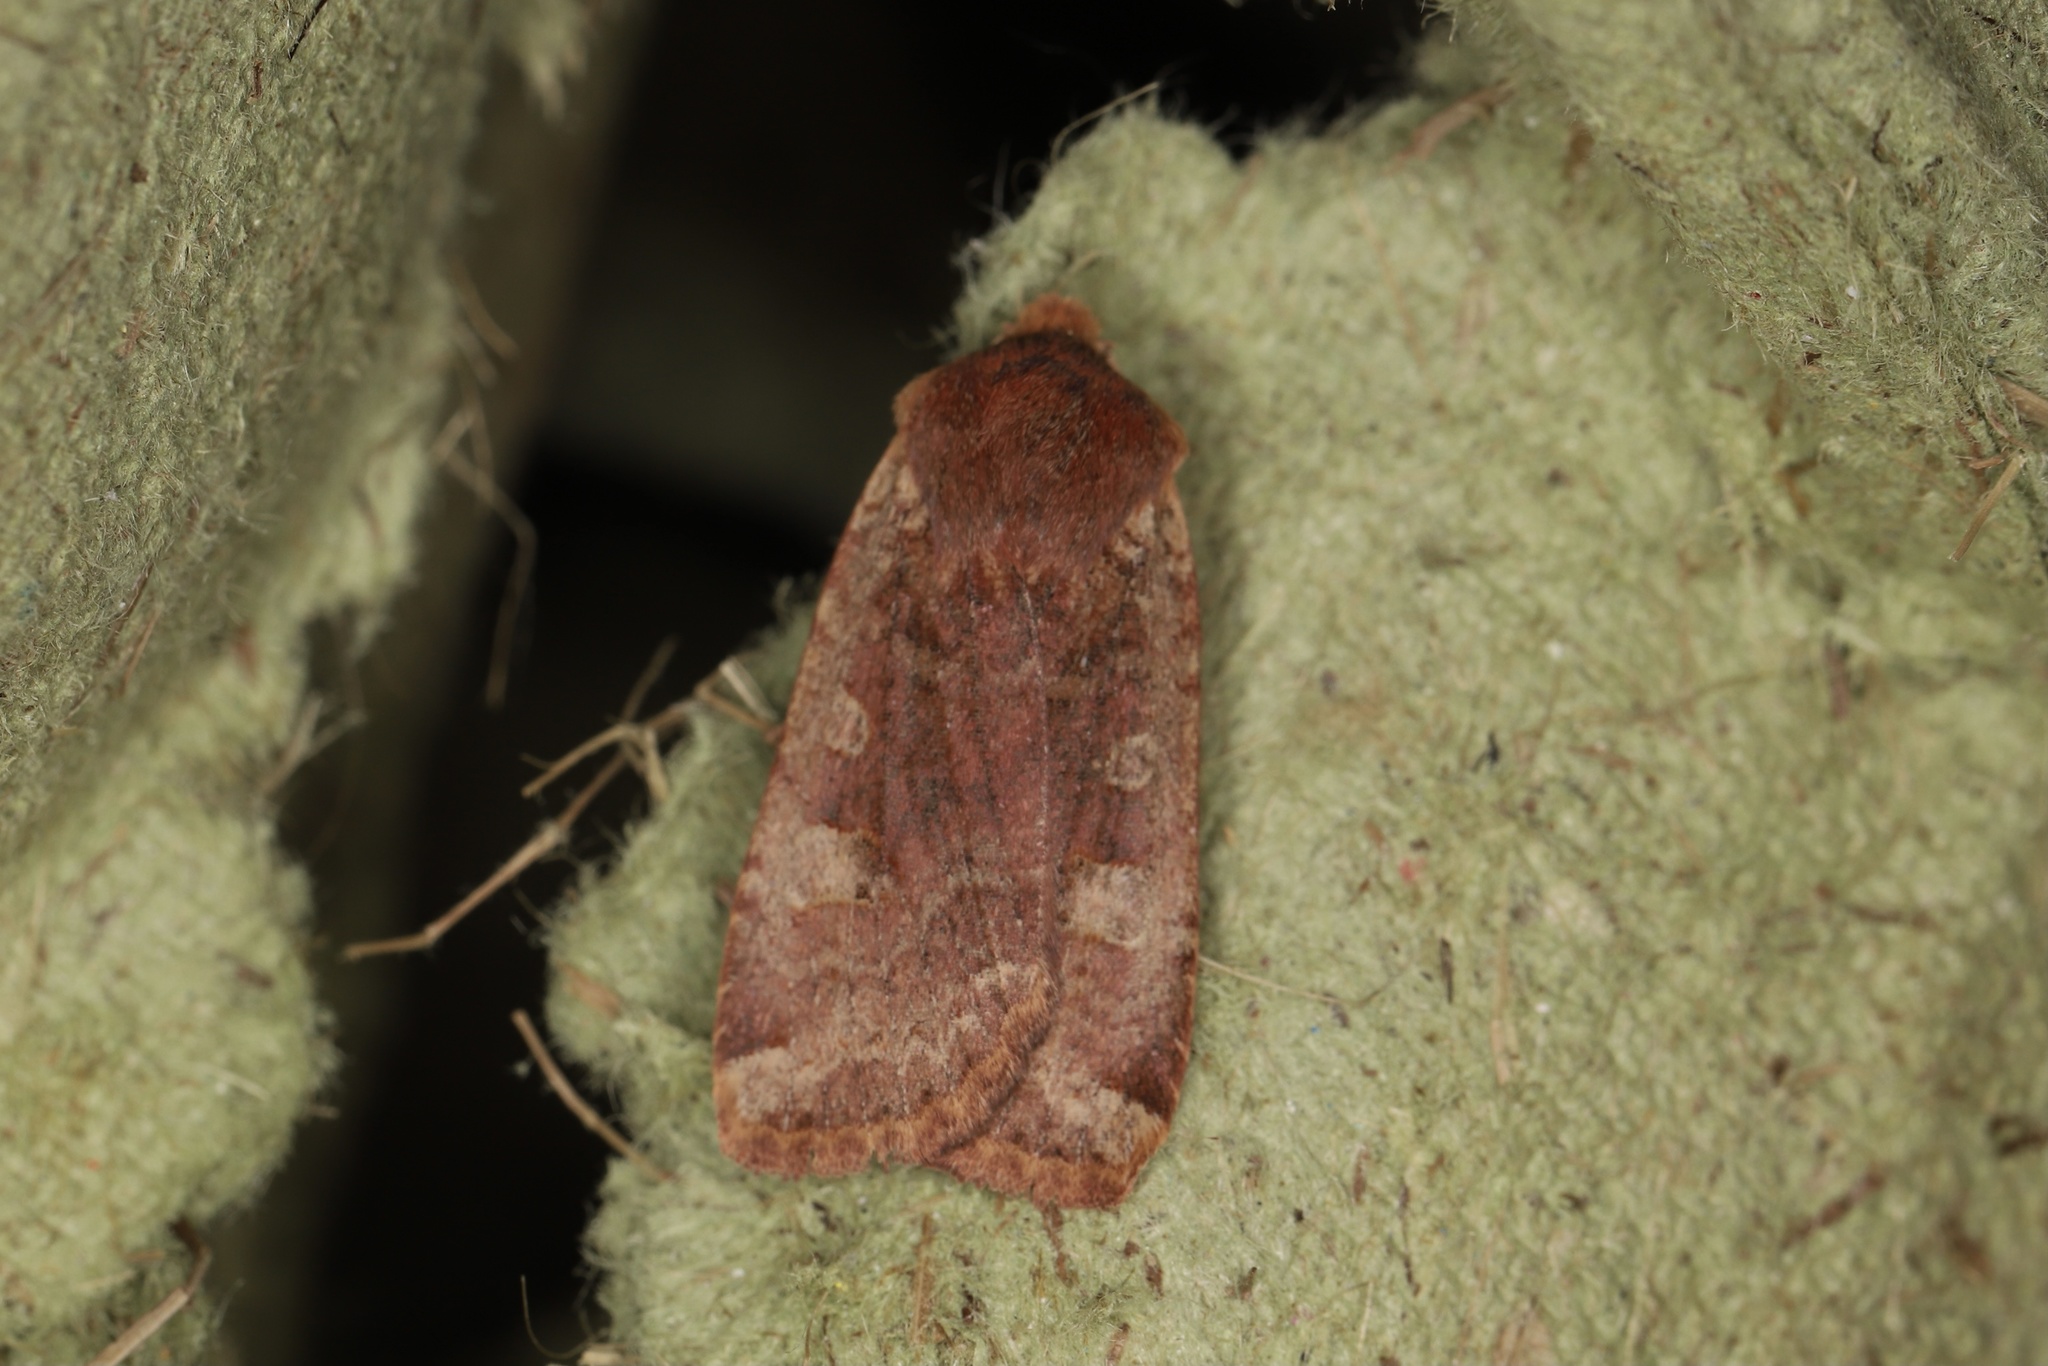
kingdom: Animalia
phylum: Arthropoda
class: Insecta
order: Lepidoptera
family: Noctuidae
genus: Conistra
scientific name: Conistra erythrocephala
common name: Red-headed chestnut
